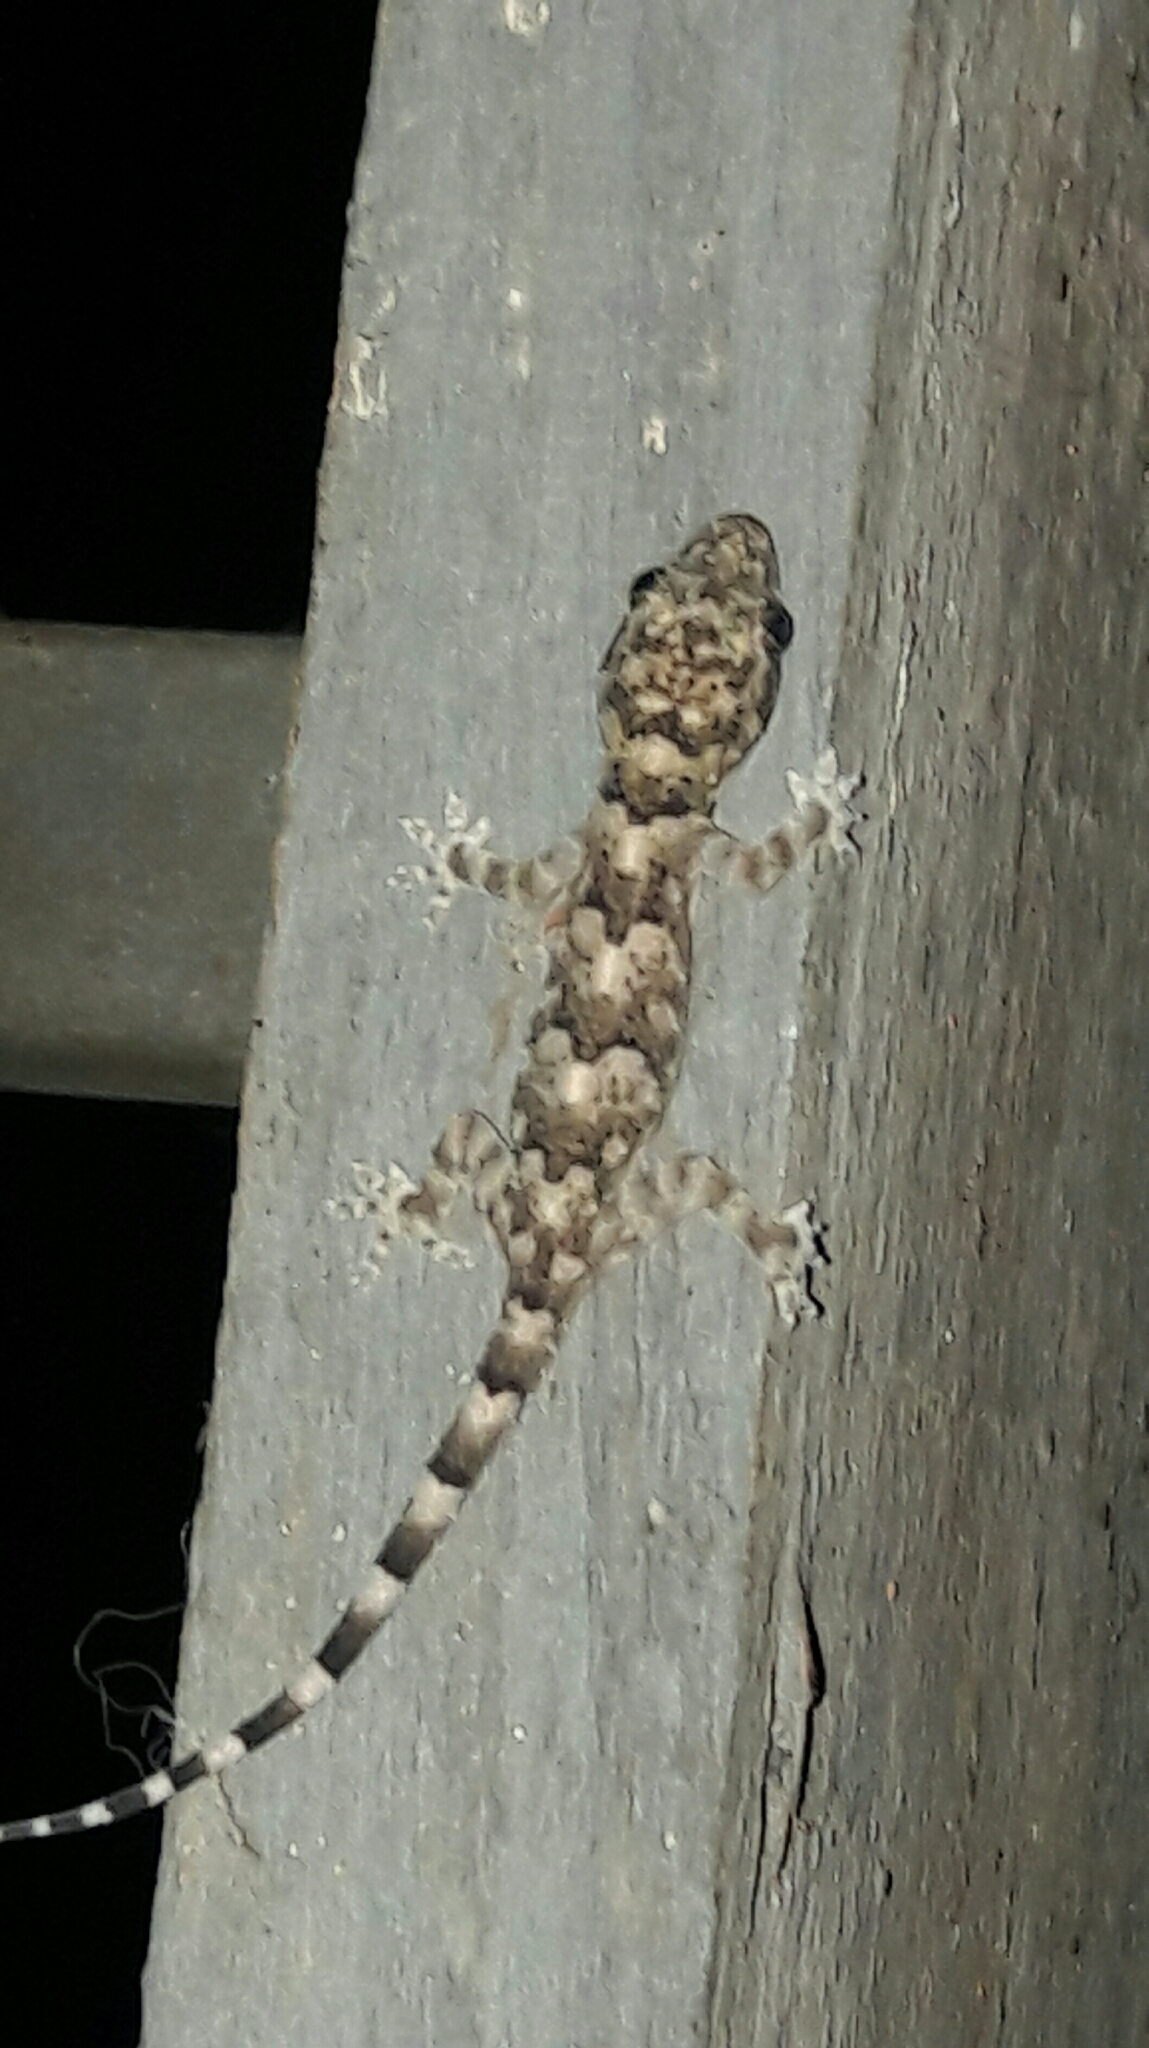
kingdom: Animalia
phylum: Chordata
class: Squamata
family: Gekkonidae
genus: Hemidactylus
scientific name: Hemidactylus mabouia
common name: House gecko
